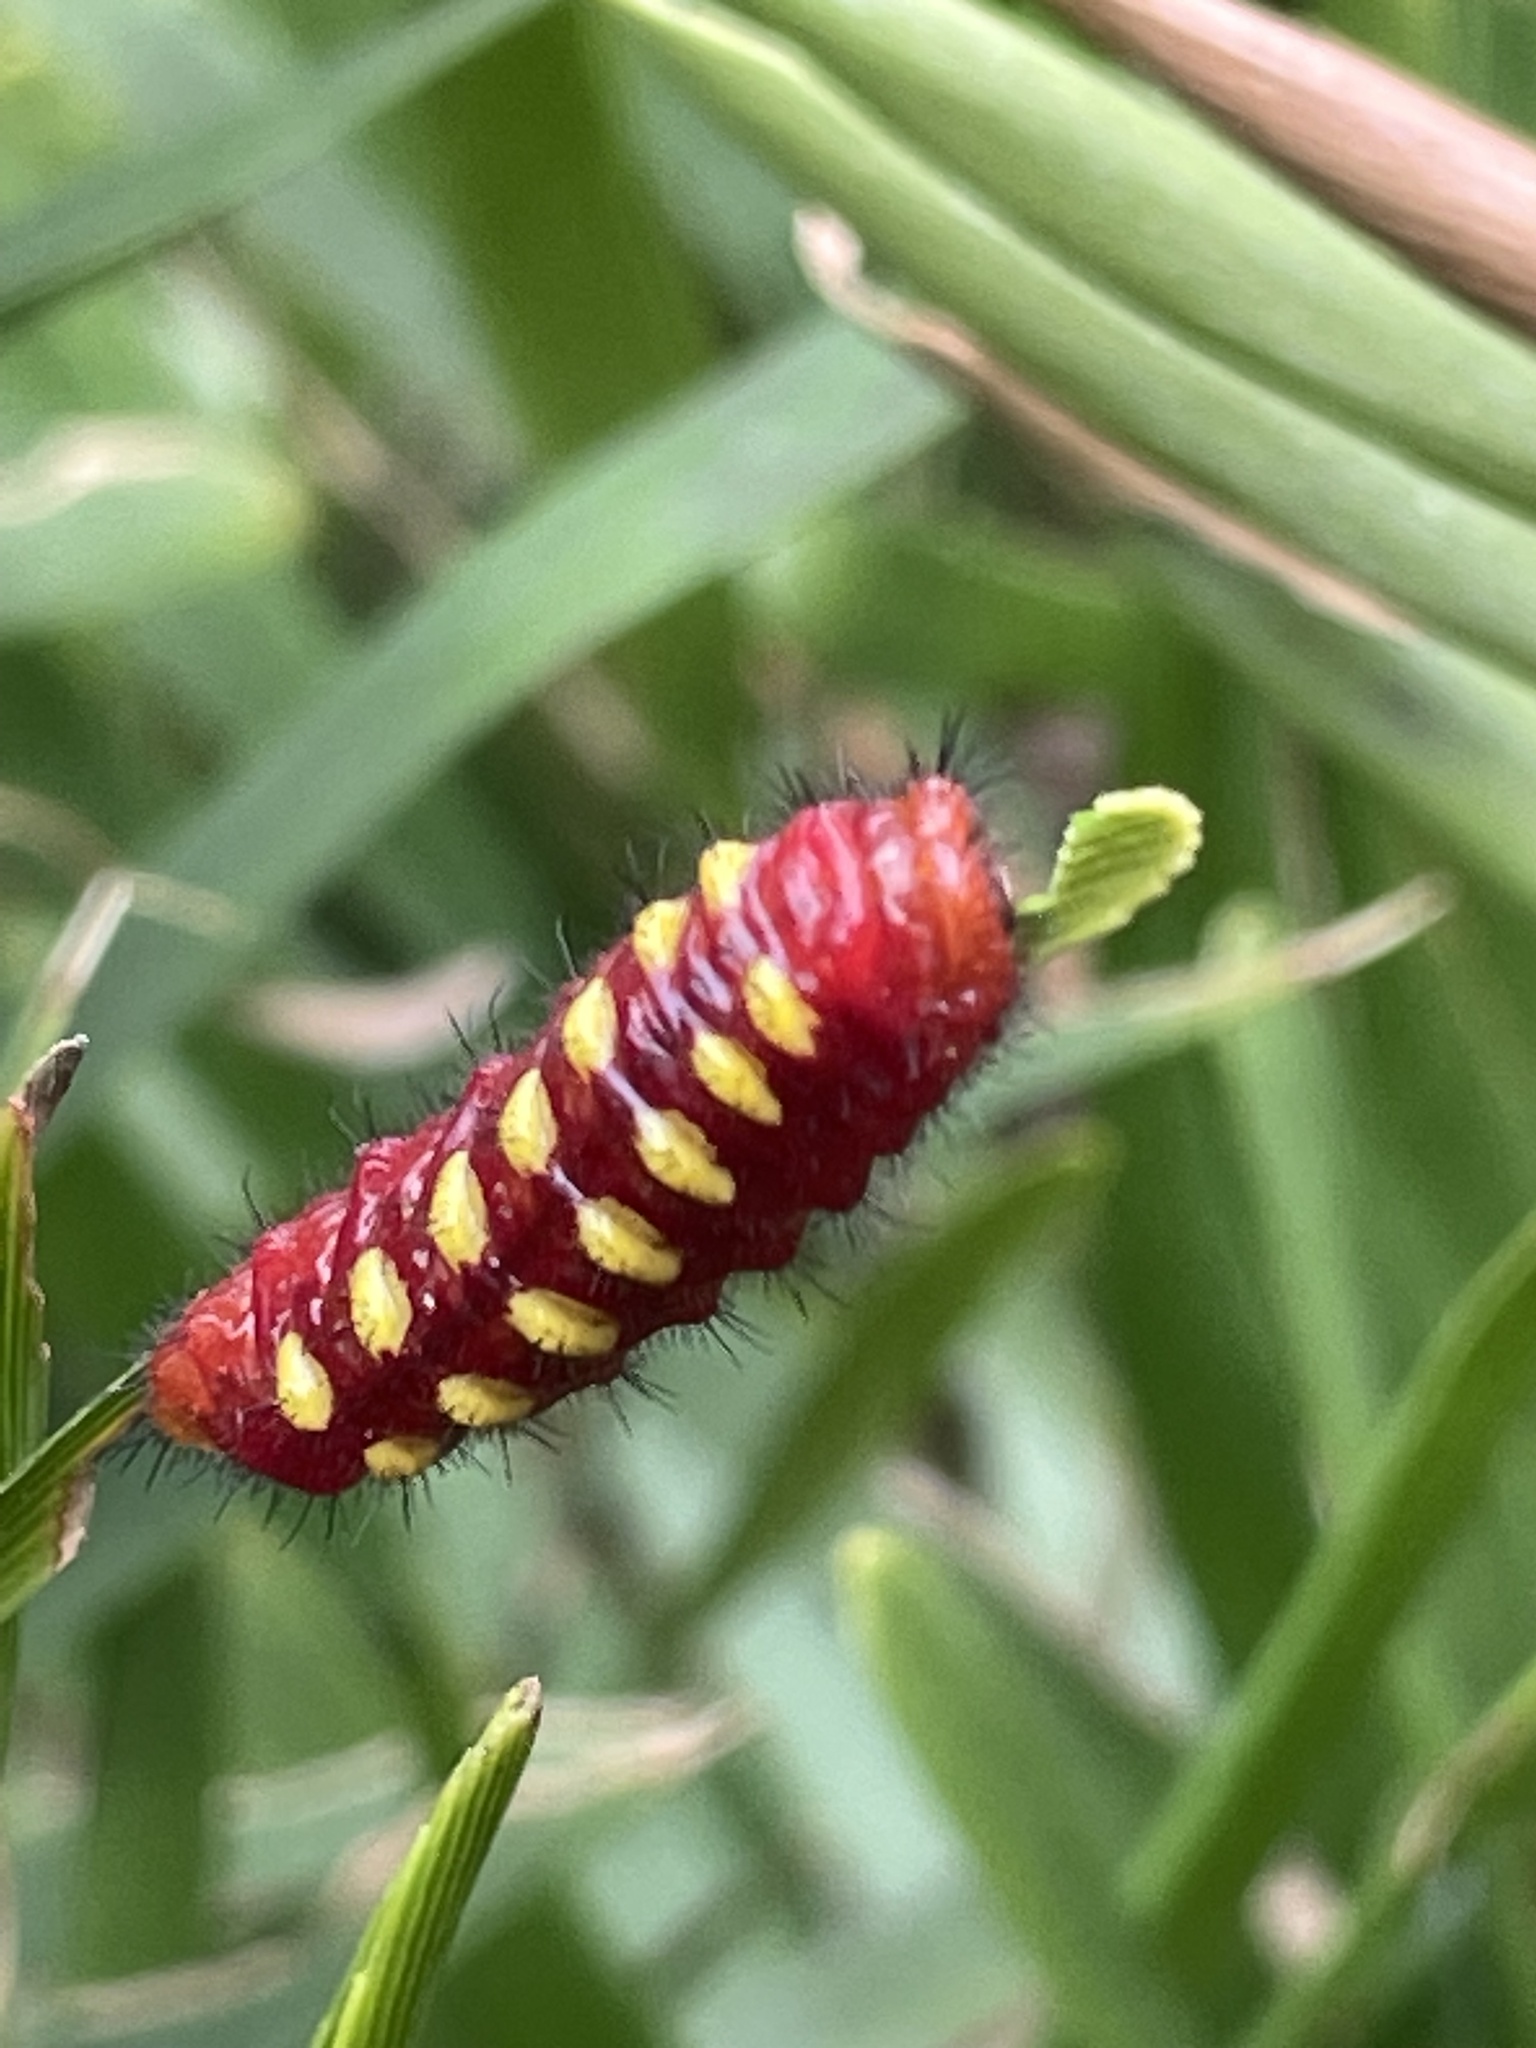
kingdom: Animalia
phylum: Arthropoda
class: Insecta
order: Lepidoptera
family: Lycaenidae
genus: Eumaeus
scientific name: Eumaeus atala
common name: Atala
